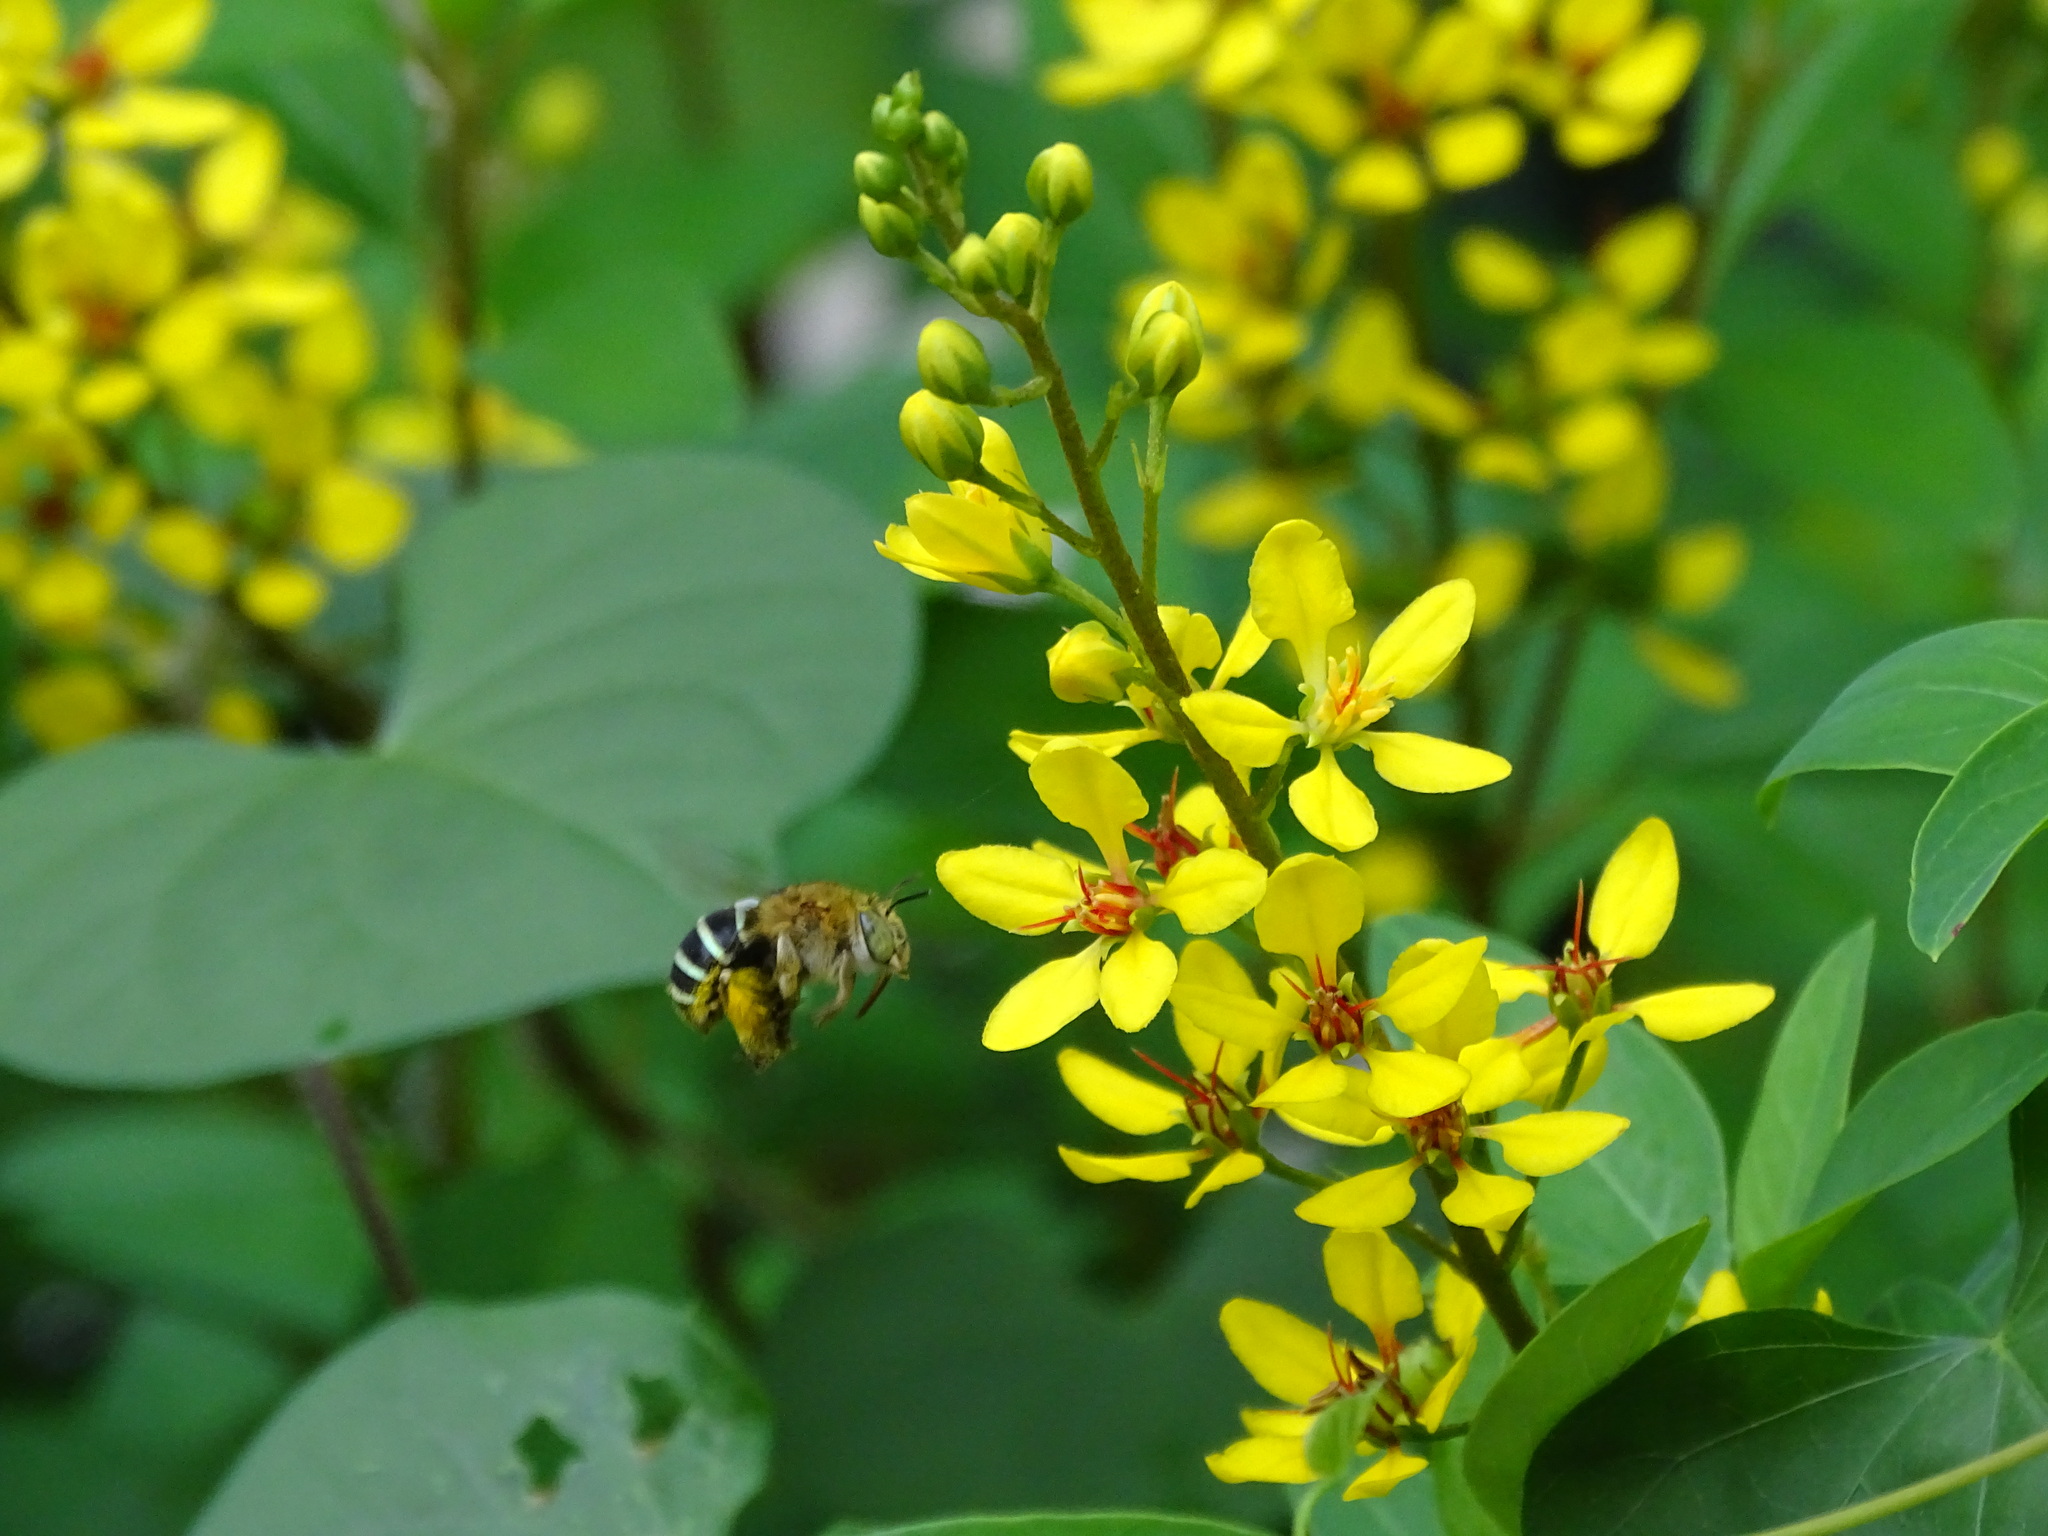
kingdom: Animalia
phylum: Arthropoda
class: Insecta
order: Hymenoptera
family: Apidae
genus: Amegilla
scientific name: Amegilla calceifera
